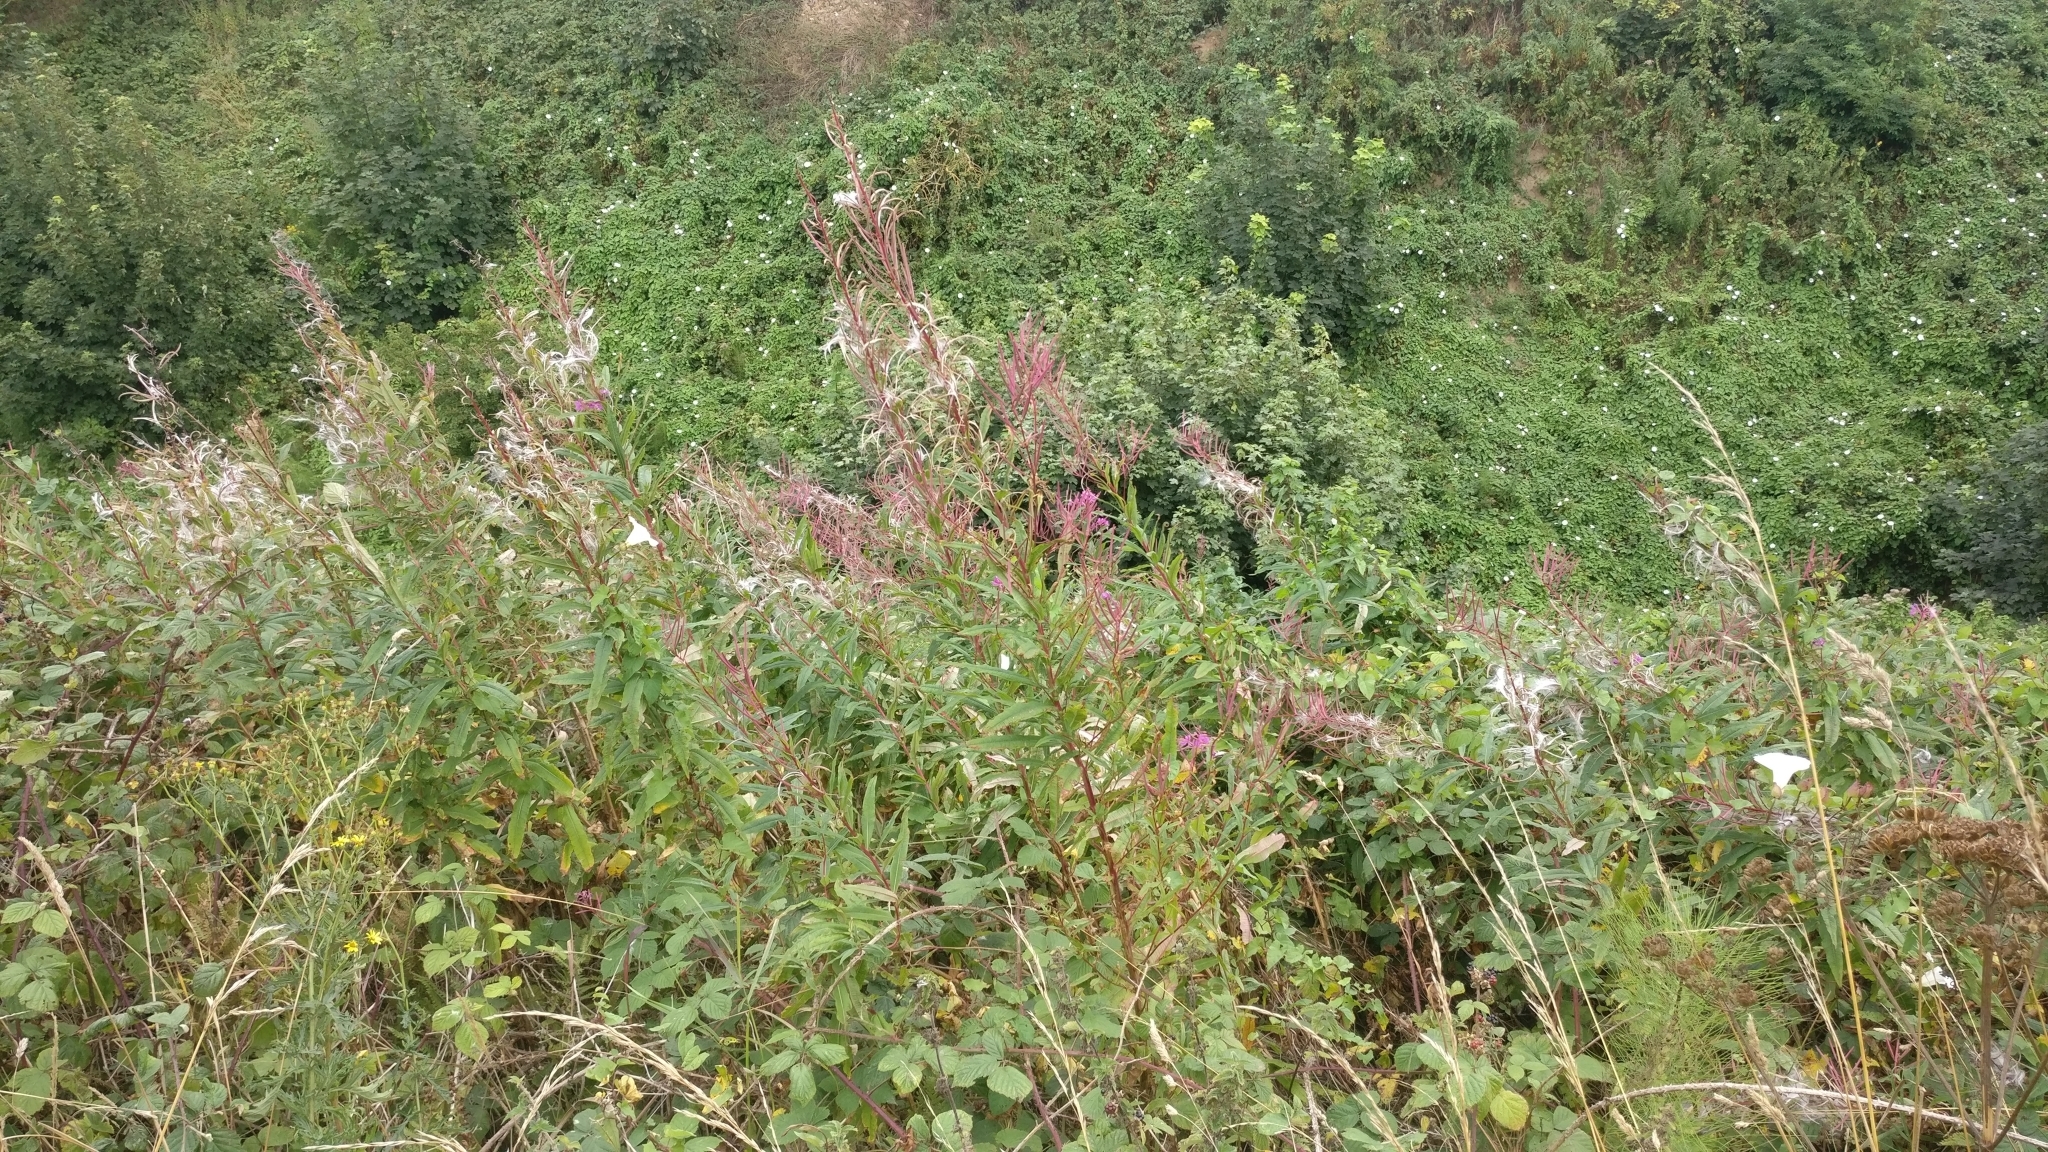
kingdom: Plantae
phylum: Tracheophyta
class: Magnoliopsida
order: Myrtales
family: Onagraceae
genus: Chamaenerion
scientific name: Chamaenerion angustifolium
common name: Fireweed
